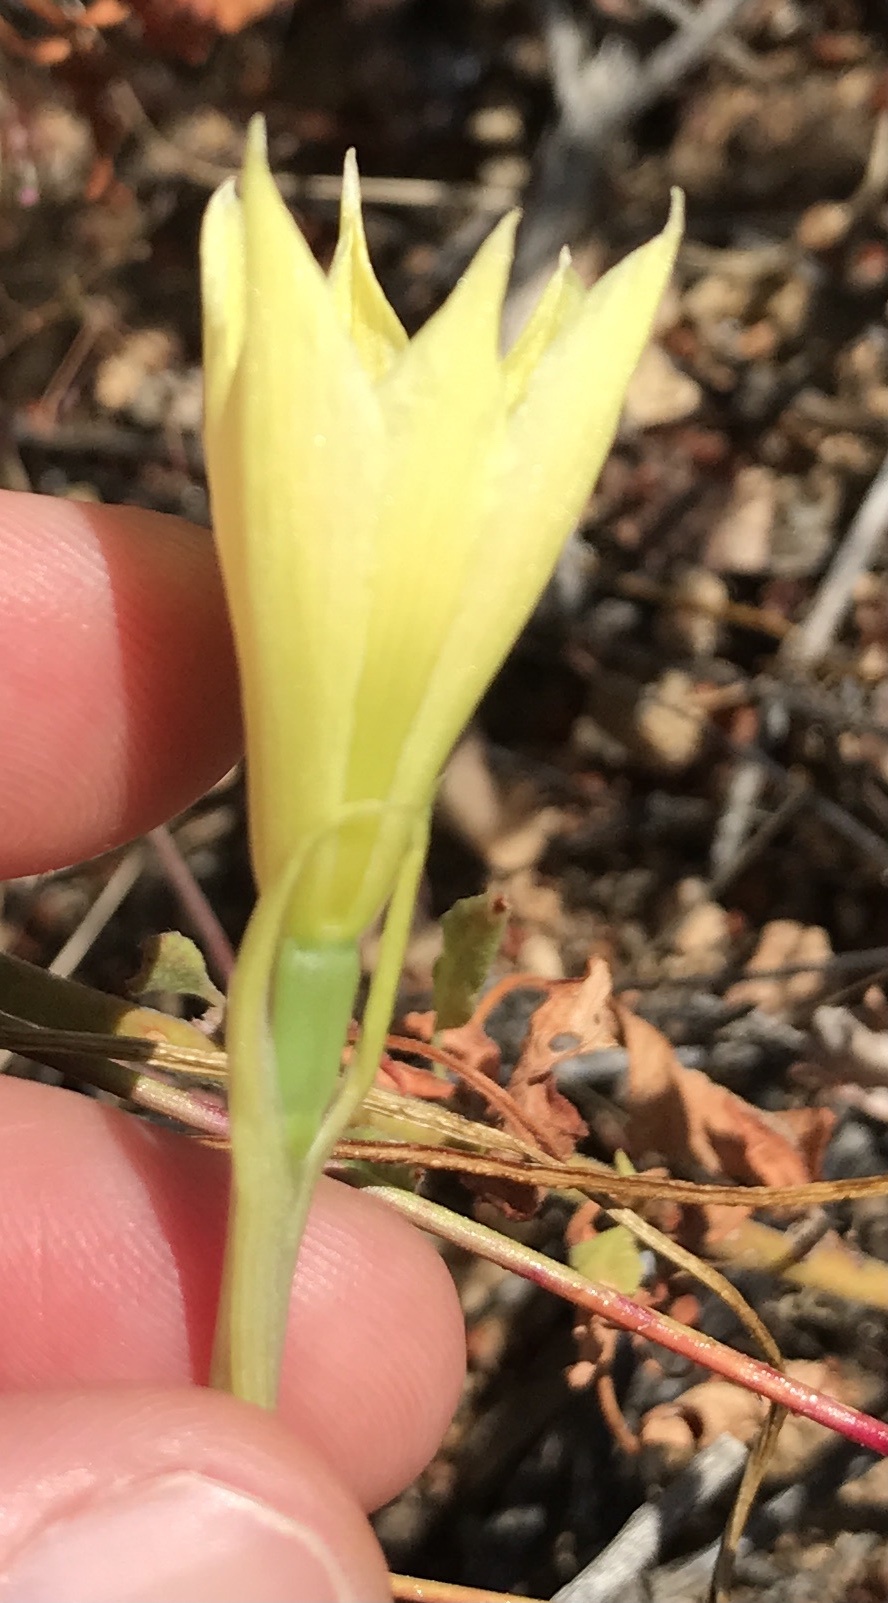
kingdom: Plantae
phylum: Tracheophyta
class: Liliopsida
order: Asparagales
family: Amaryllidaceae
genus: Zephyranthes
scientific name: Zephyranthes longifolia
